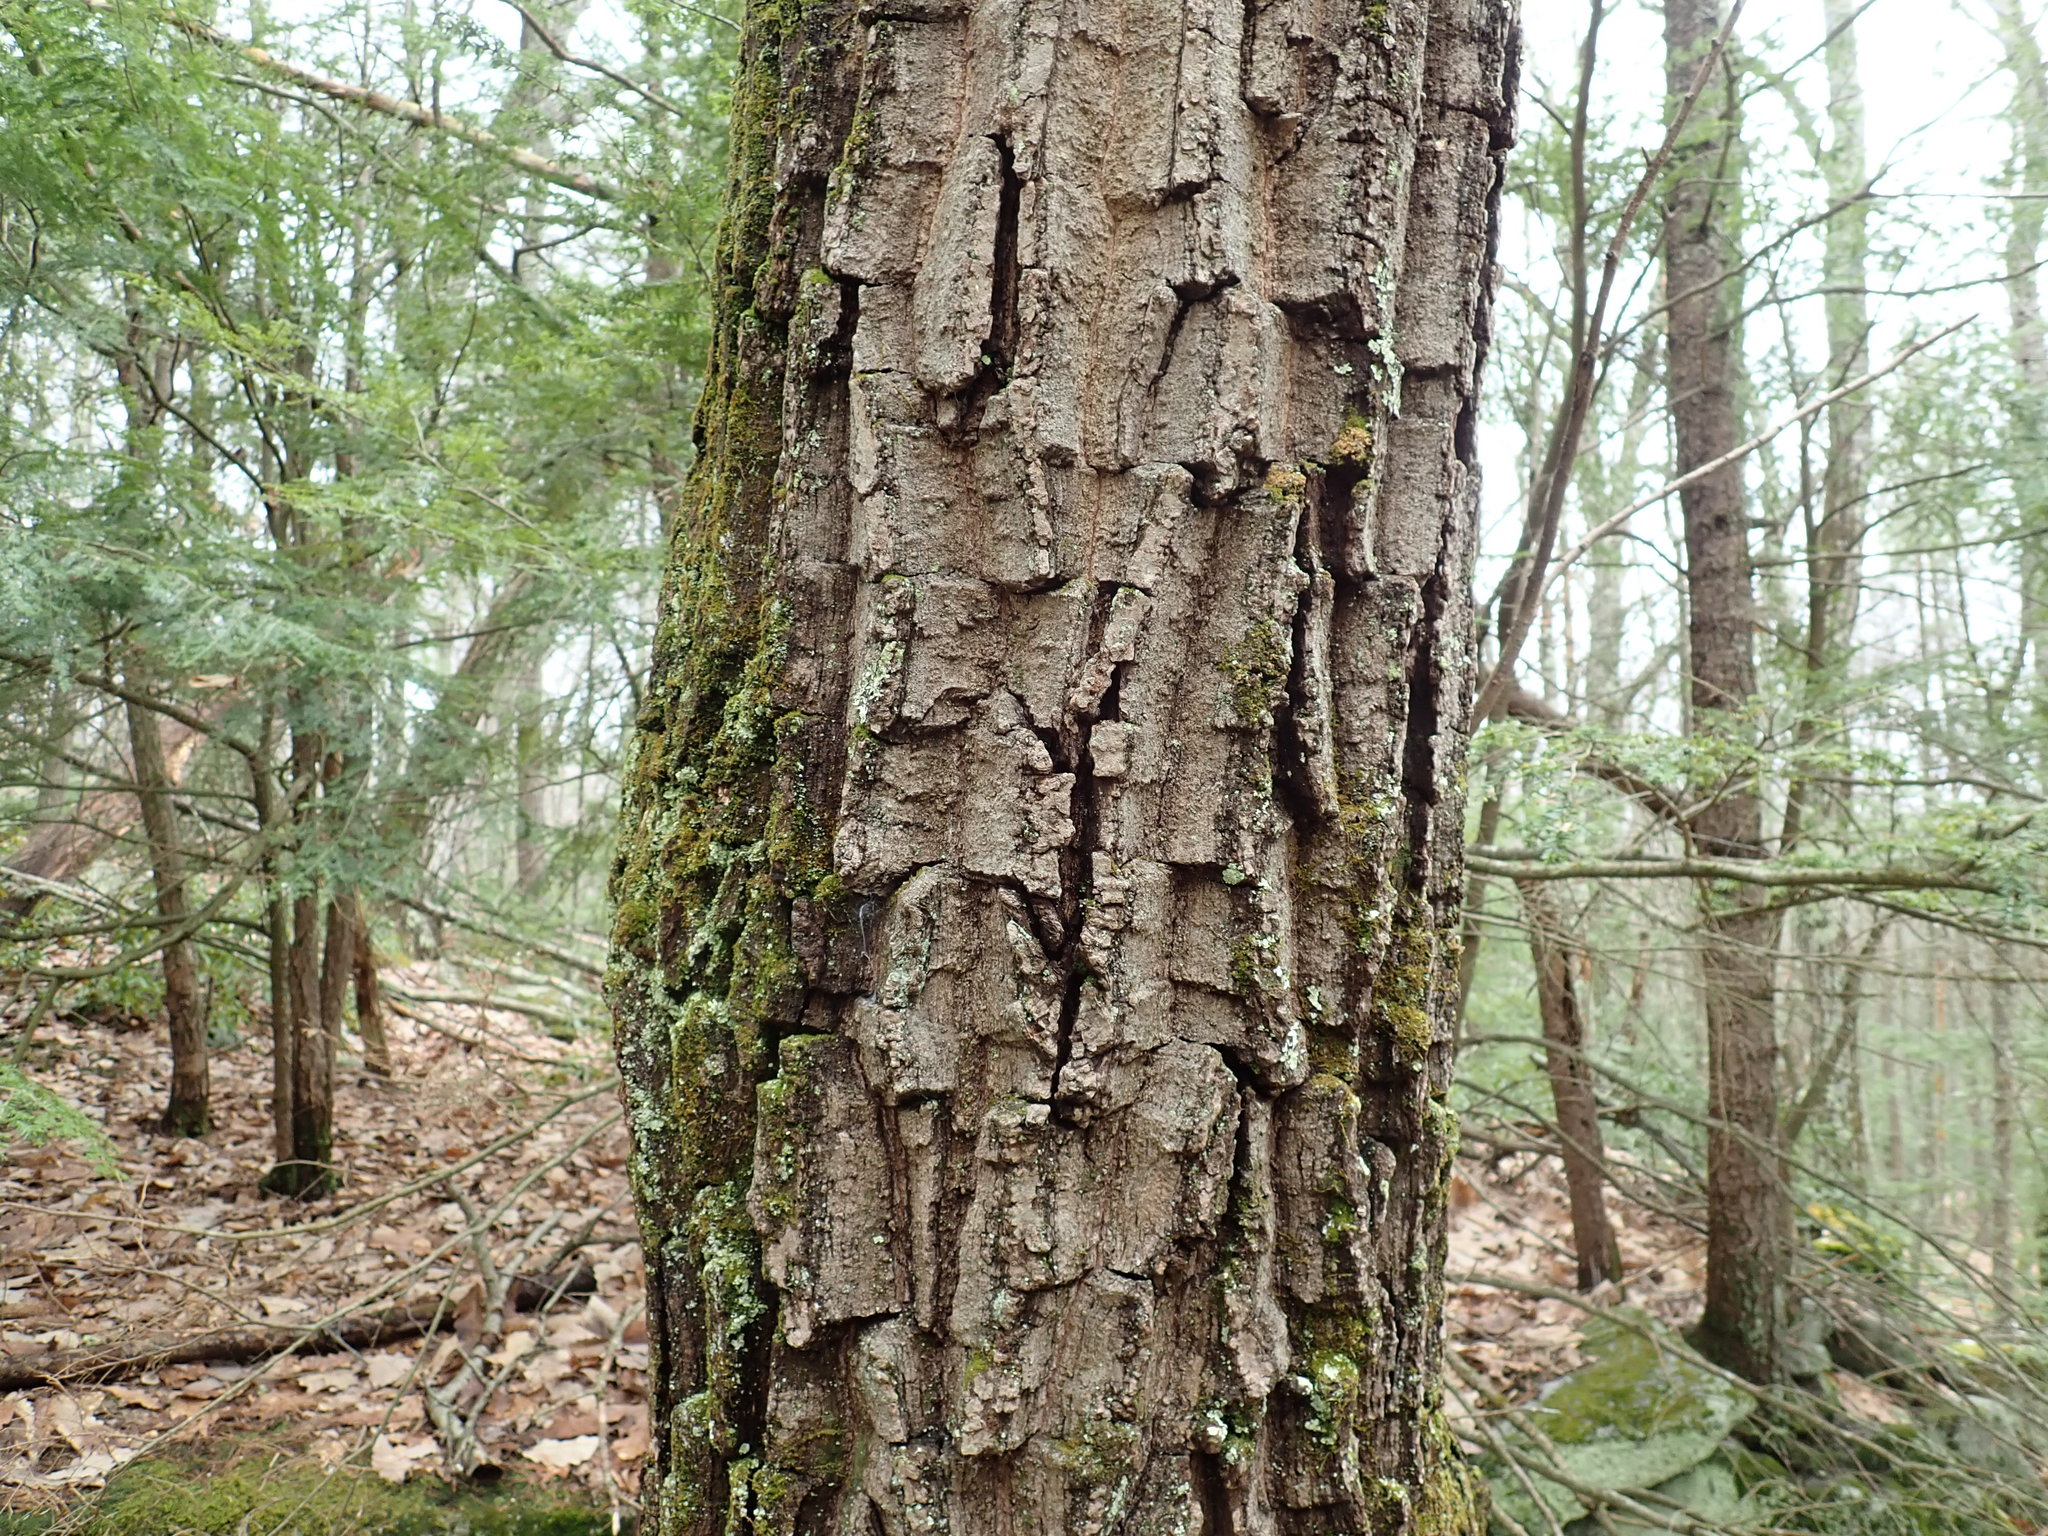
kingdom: Plantae
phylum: Tracheophyta
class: Magnoliopsida
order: Fagales
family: Fagaceae
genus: Quercus
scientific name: Quercus montana
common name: Chestnut oak
